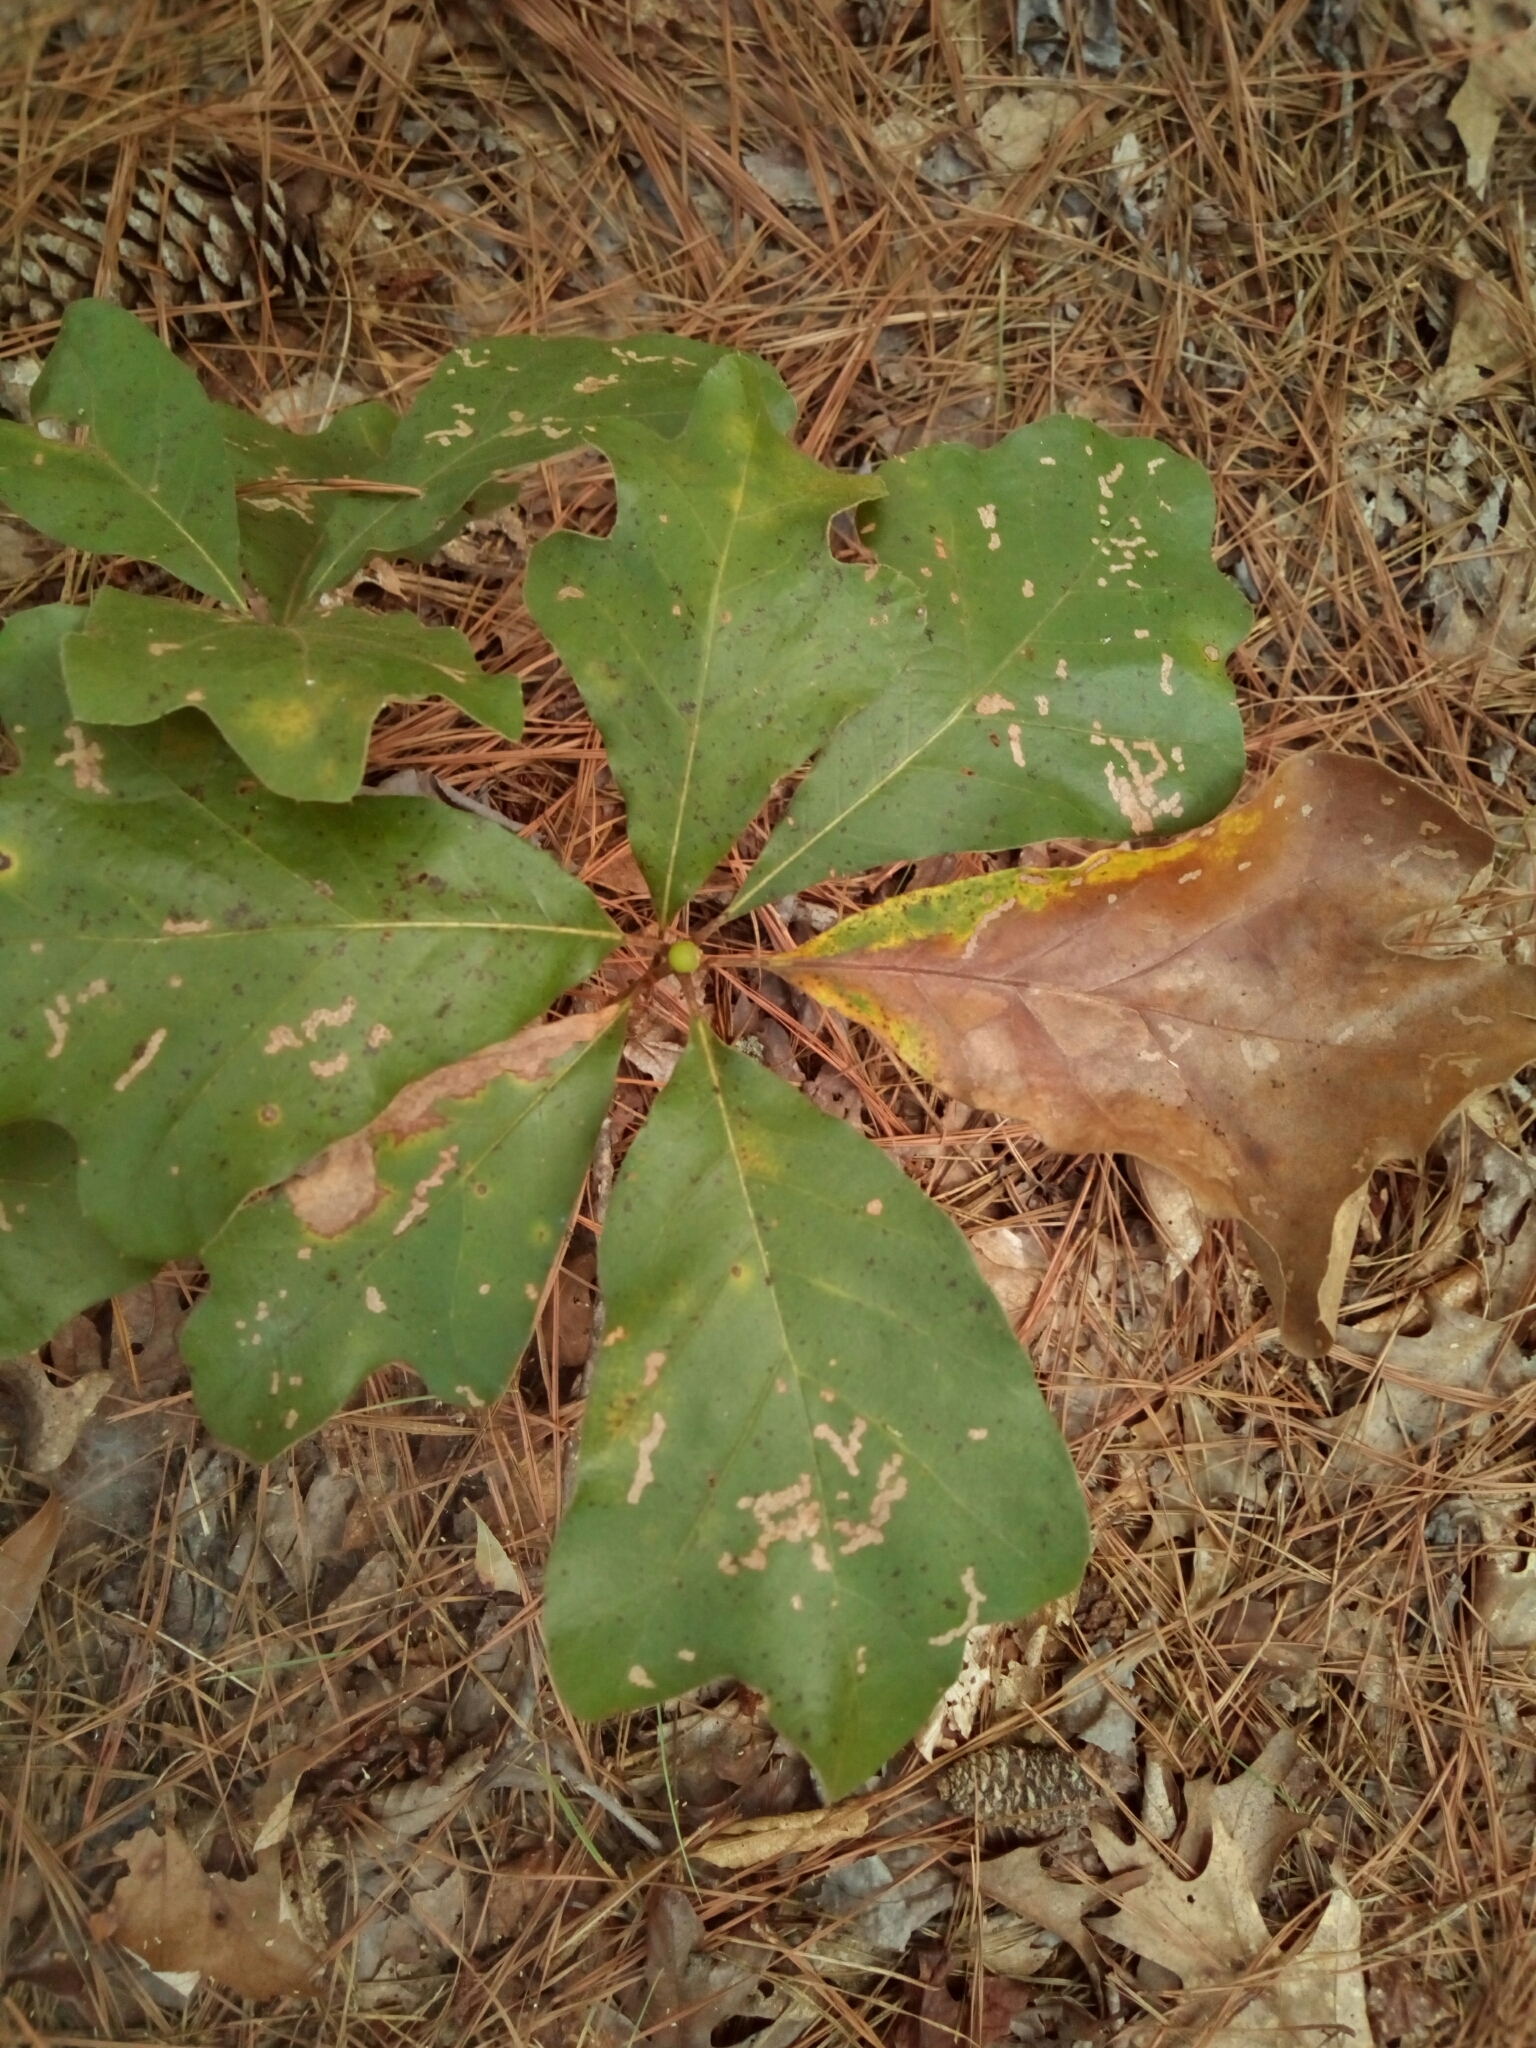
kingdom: Plantae
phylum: Tracheophyta
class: Magnoliopsida
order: Fagales
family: Fagaceae
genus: Quercus
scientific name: Quercus marilandica
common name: Blackjack oak
